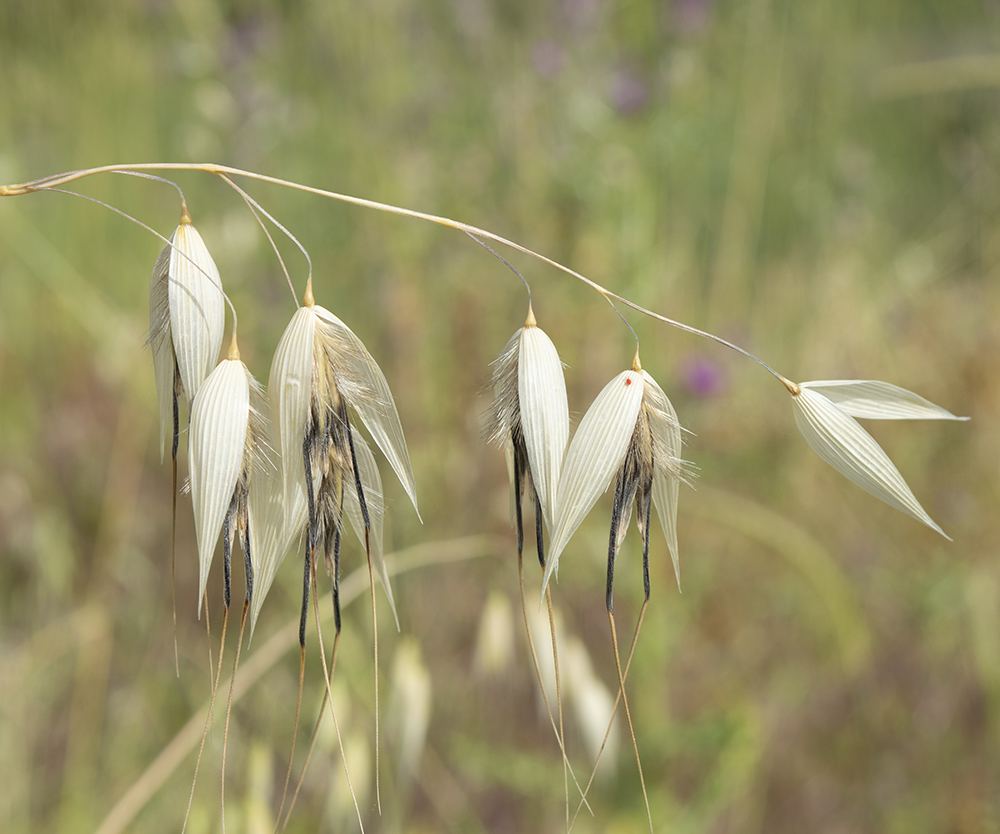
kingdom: Plantae
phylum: Tracheophyta
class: Liliopsida
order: Poales
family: Poaceae
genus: Avena
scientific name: Avena sterilis
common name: Animated oat
